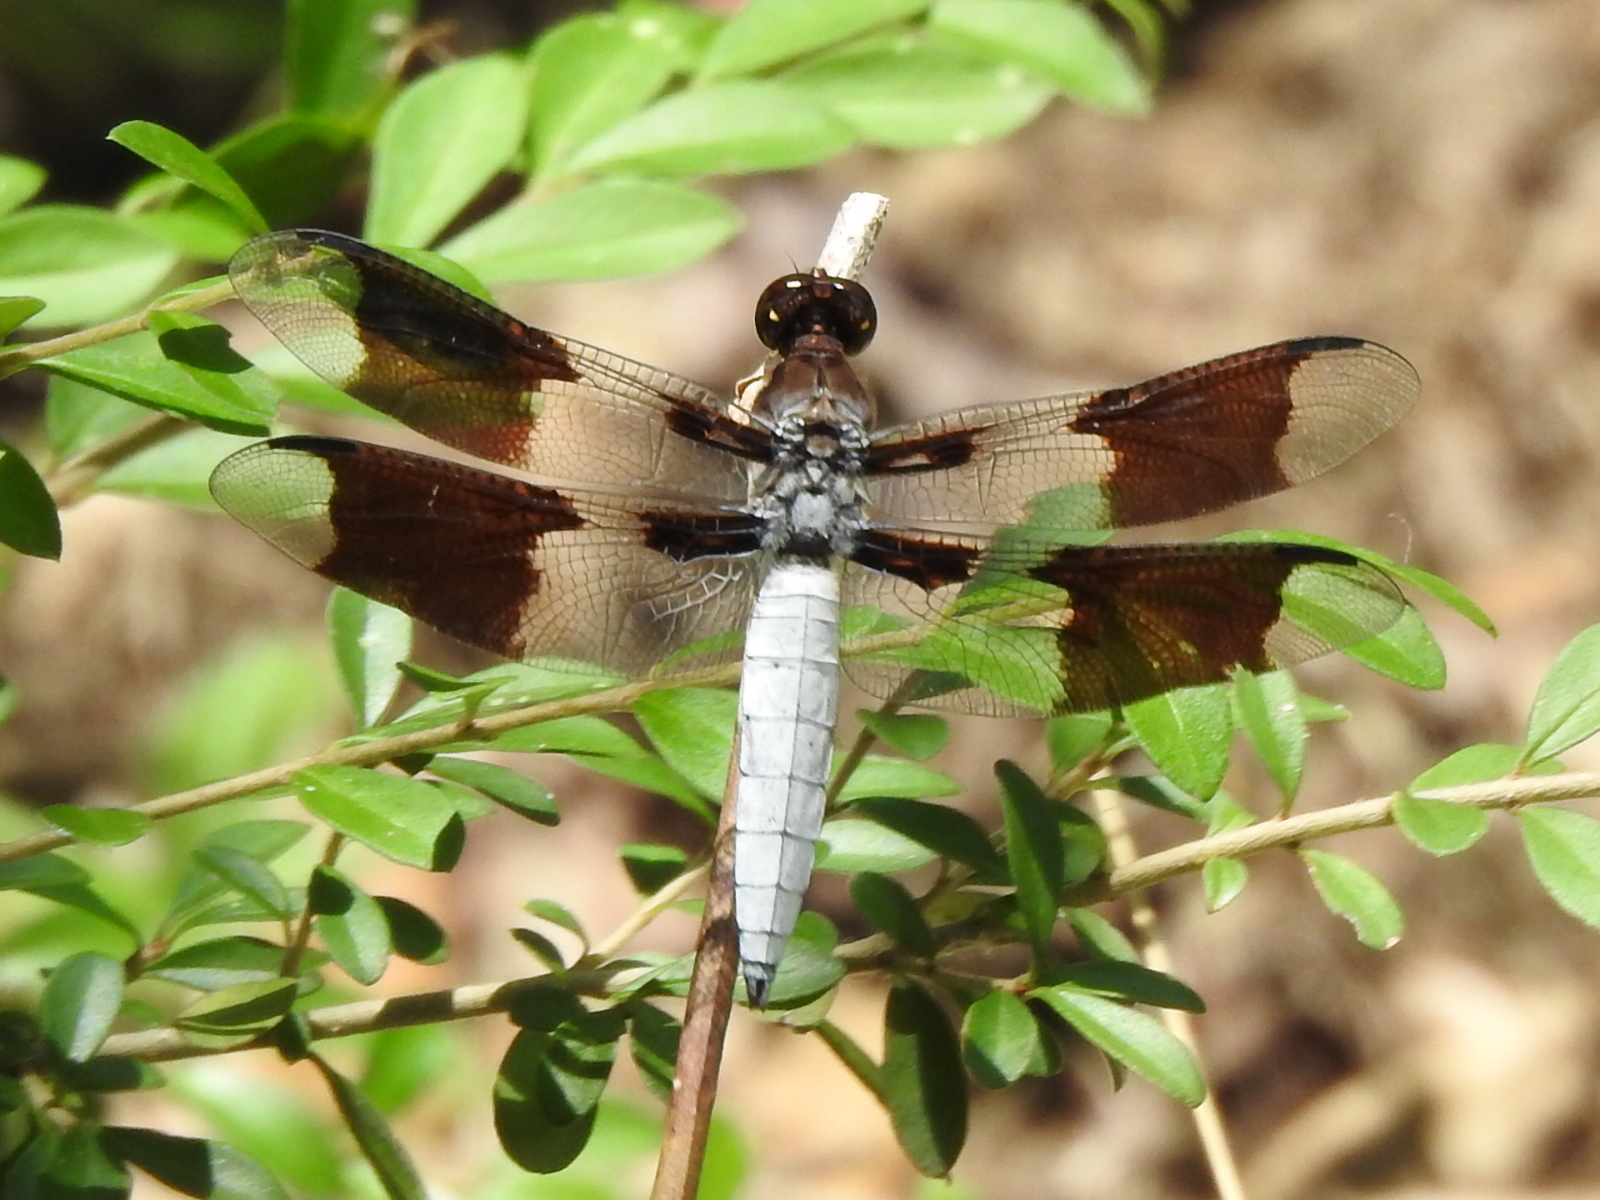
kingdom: Animalia
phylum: Arthropoda
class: Insecta
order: Odonata
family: Libellulidae
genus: Plathemis
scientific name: Plathemis lydia
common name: Common whitetail
